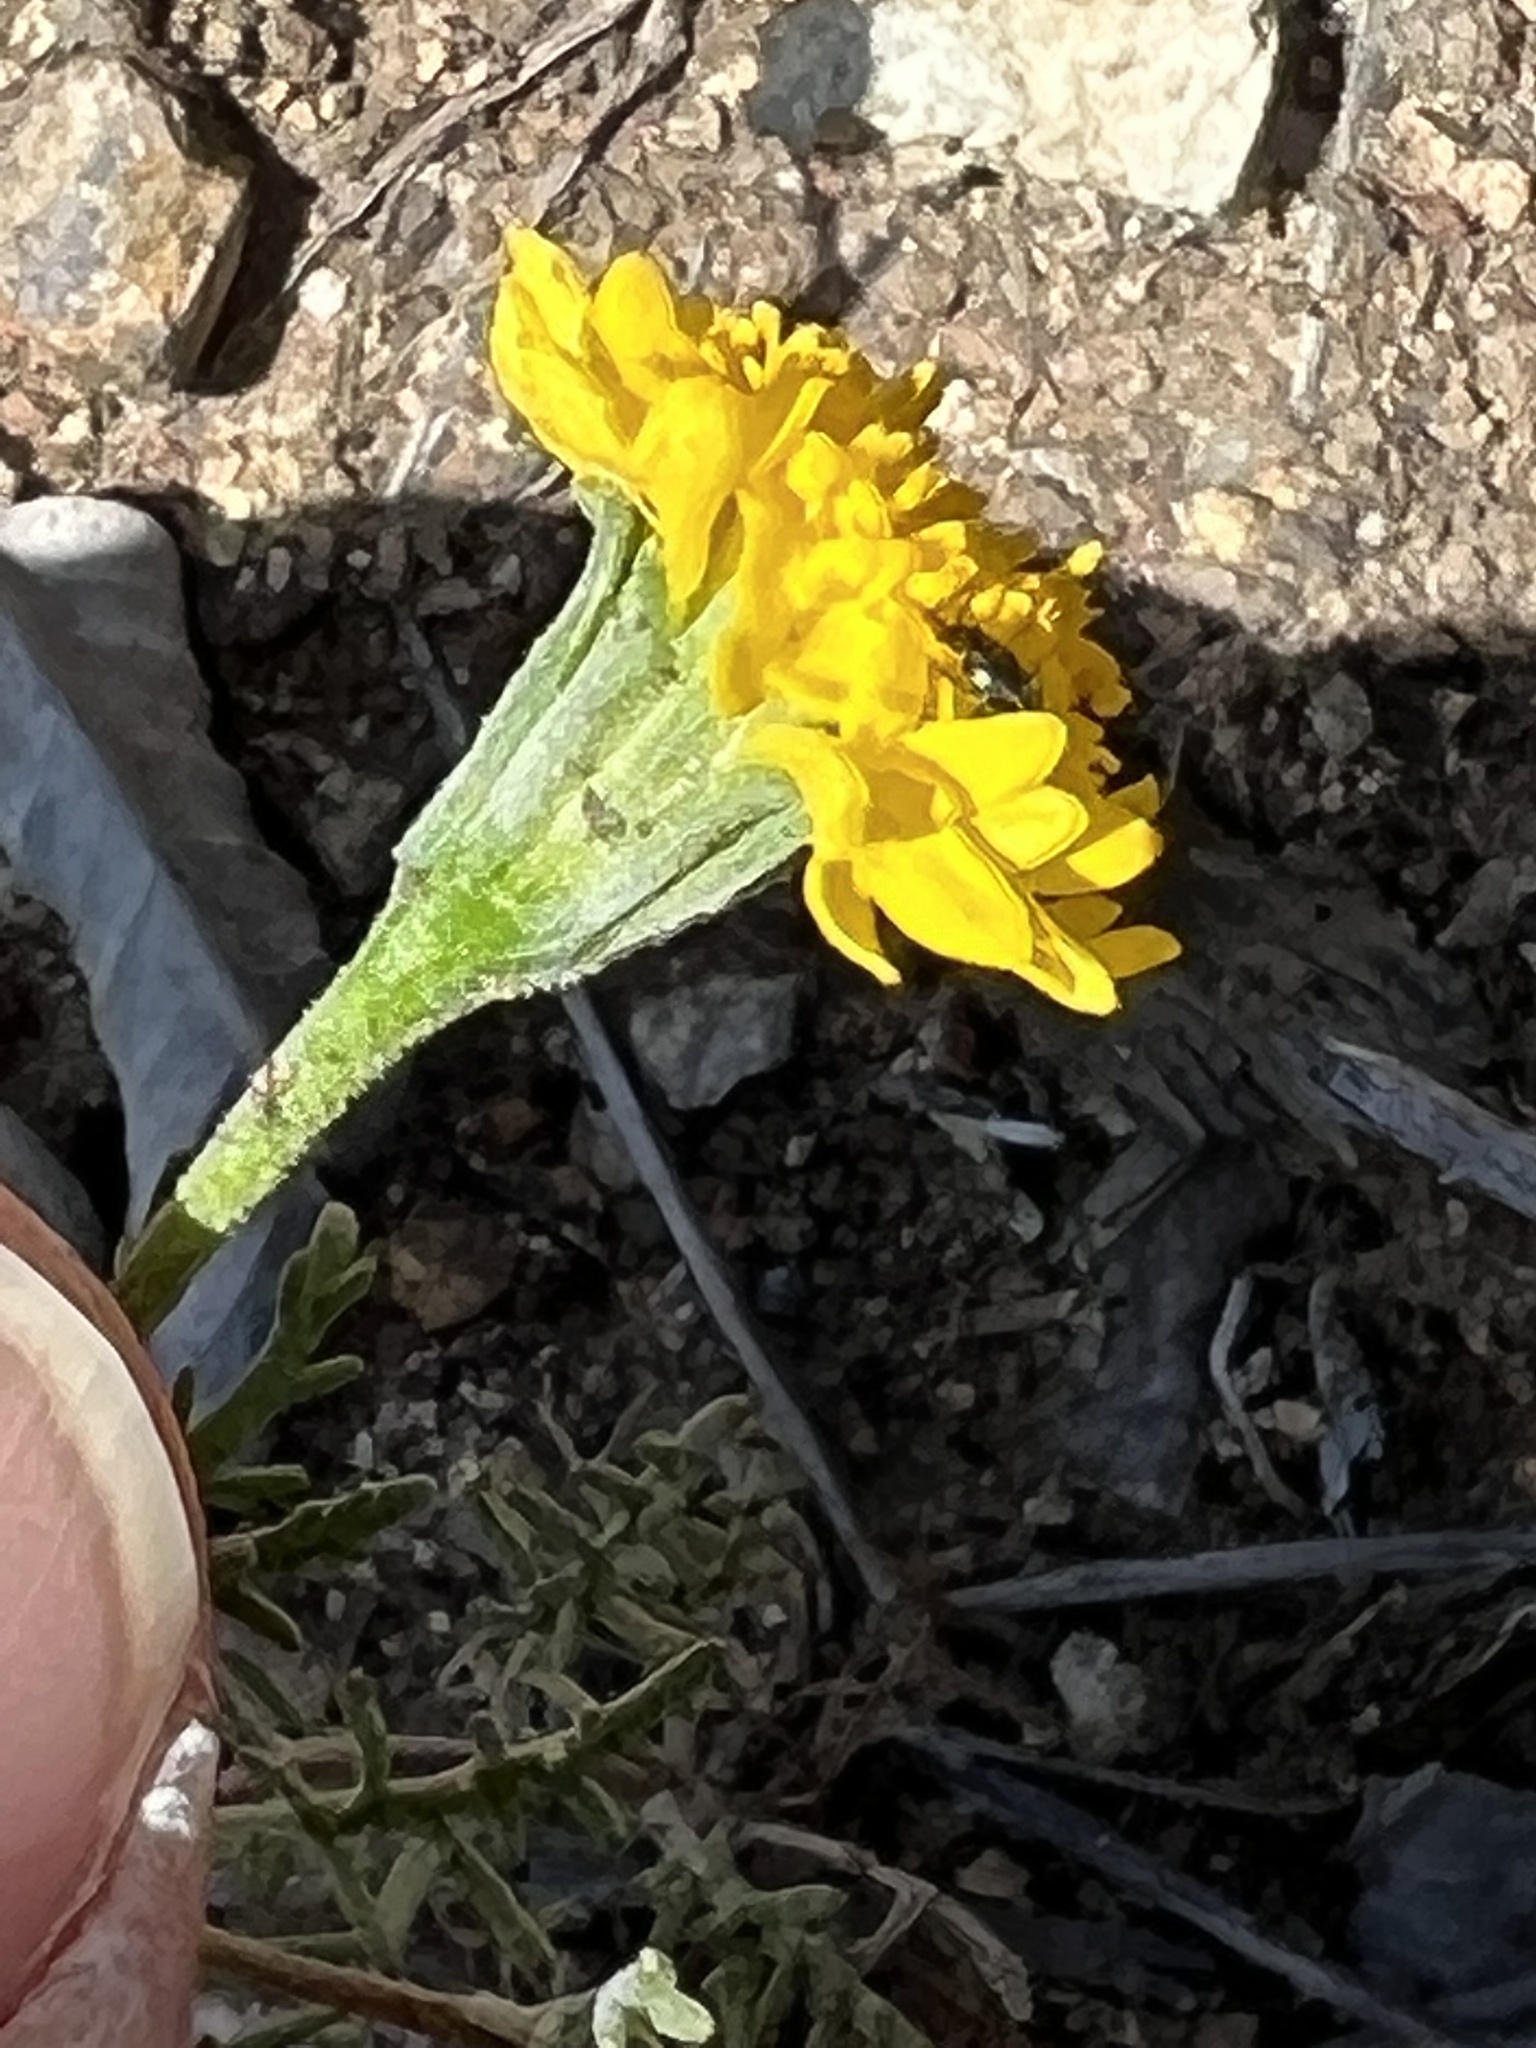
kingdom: Plantae
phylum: Tracheophyta
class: Magnoliopsida
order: Asterales
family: Asteraceae
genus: Chaenactis
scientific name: Chaenactis glabriuscula
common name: Yellow pincushion
